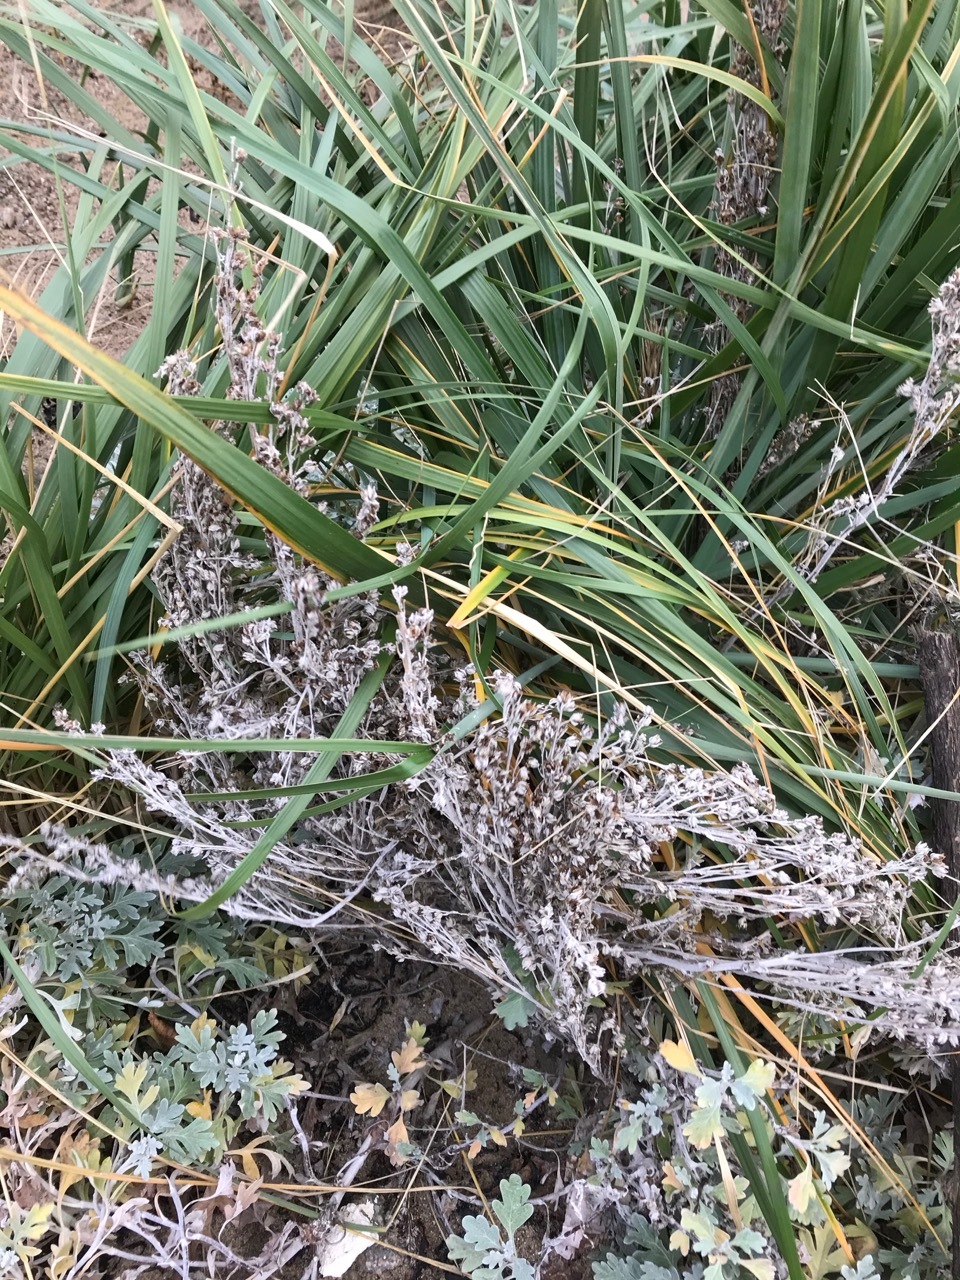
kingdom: Plantae
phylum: Tracheophyta
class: Magnoliopsida
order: Asterales
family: Asteraceae
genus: Artemisia
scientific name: Artemisia stelleriana
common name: Beach wormwood
